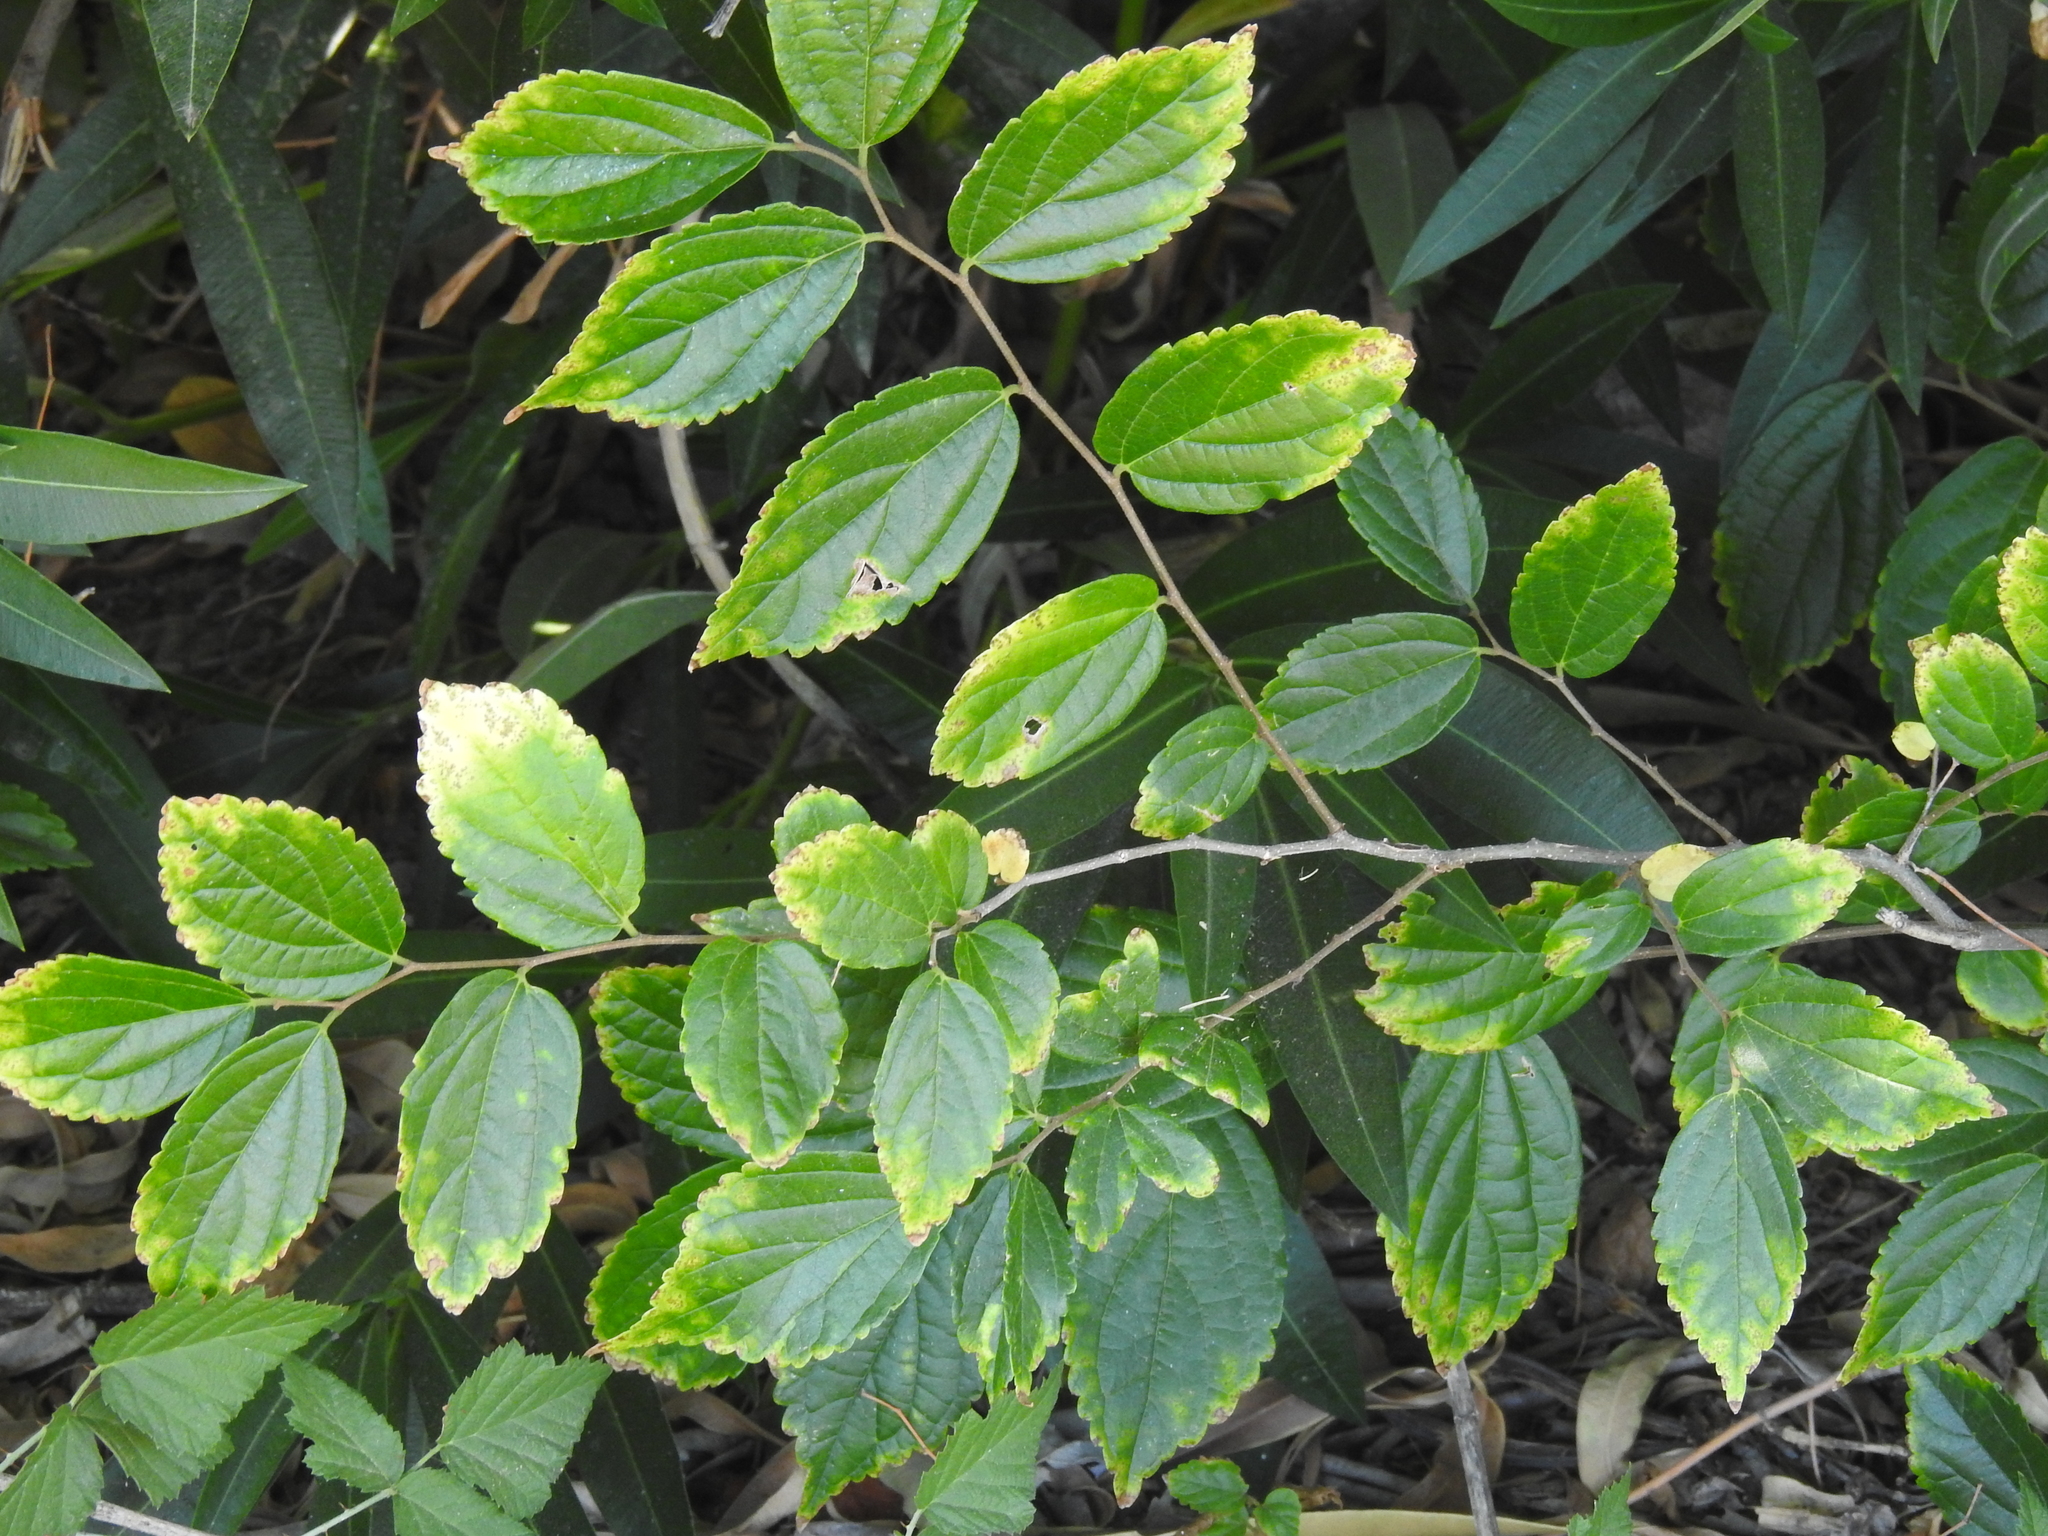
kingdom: Plantae
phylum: Tracheophyta
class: Magnoliopsida
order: Rosales
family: Cannabaceae
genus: Celtis
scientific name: Celtis sinensis
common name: Chinese hackberry
